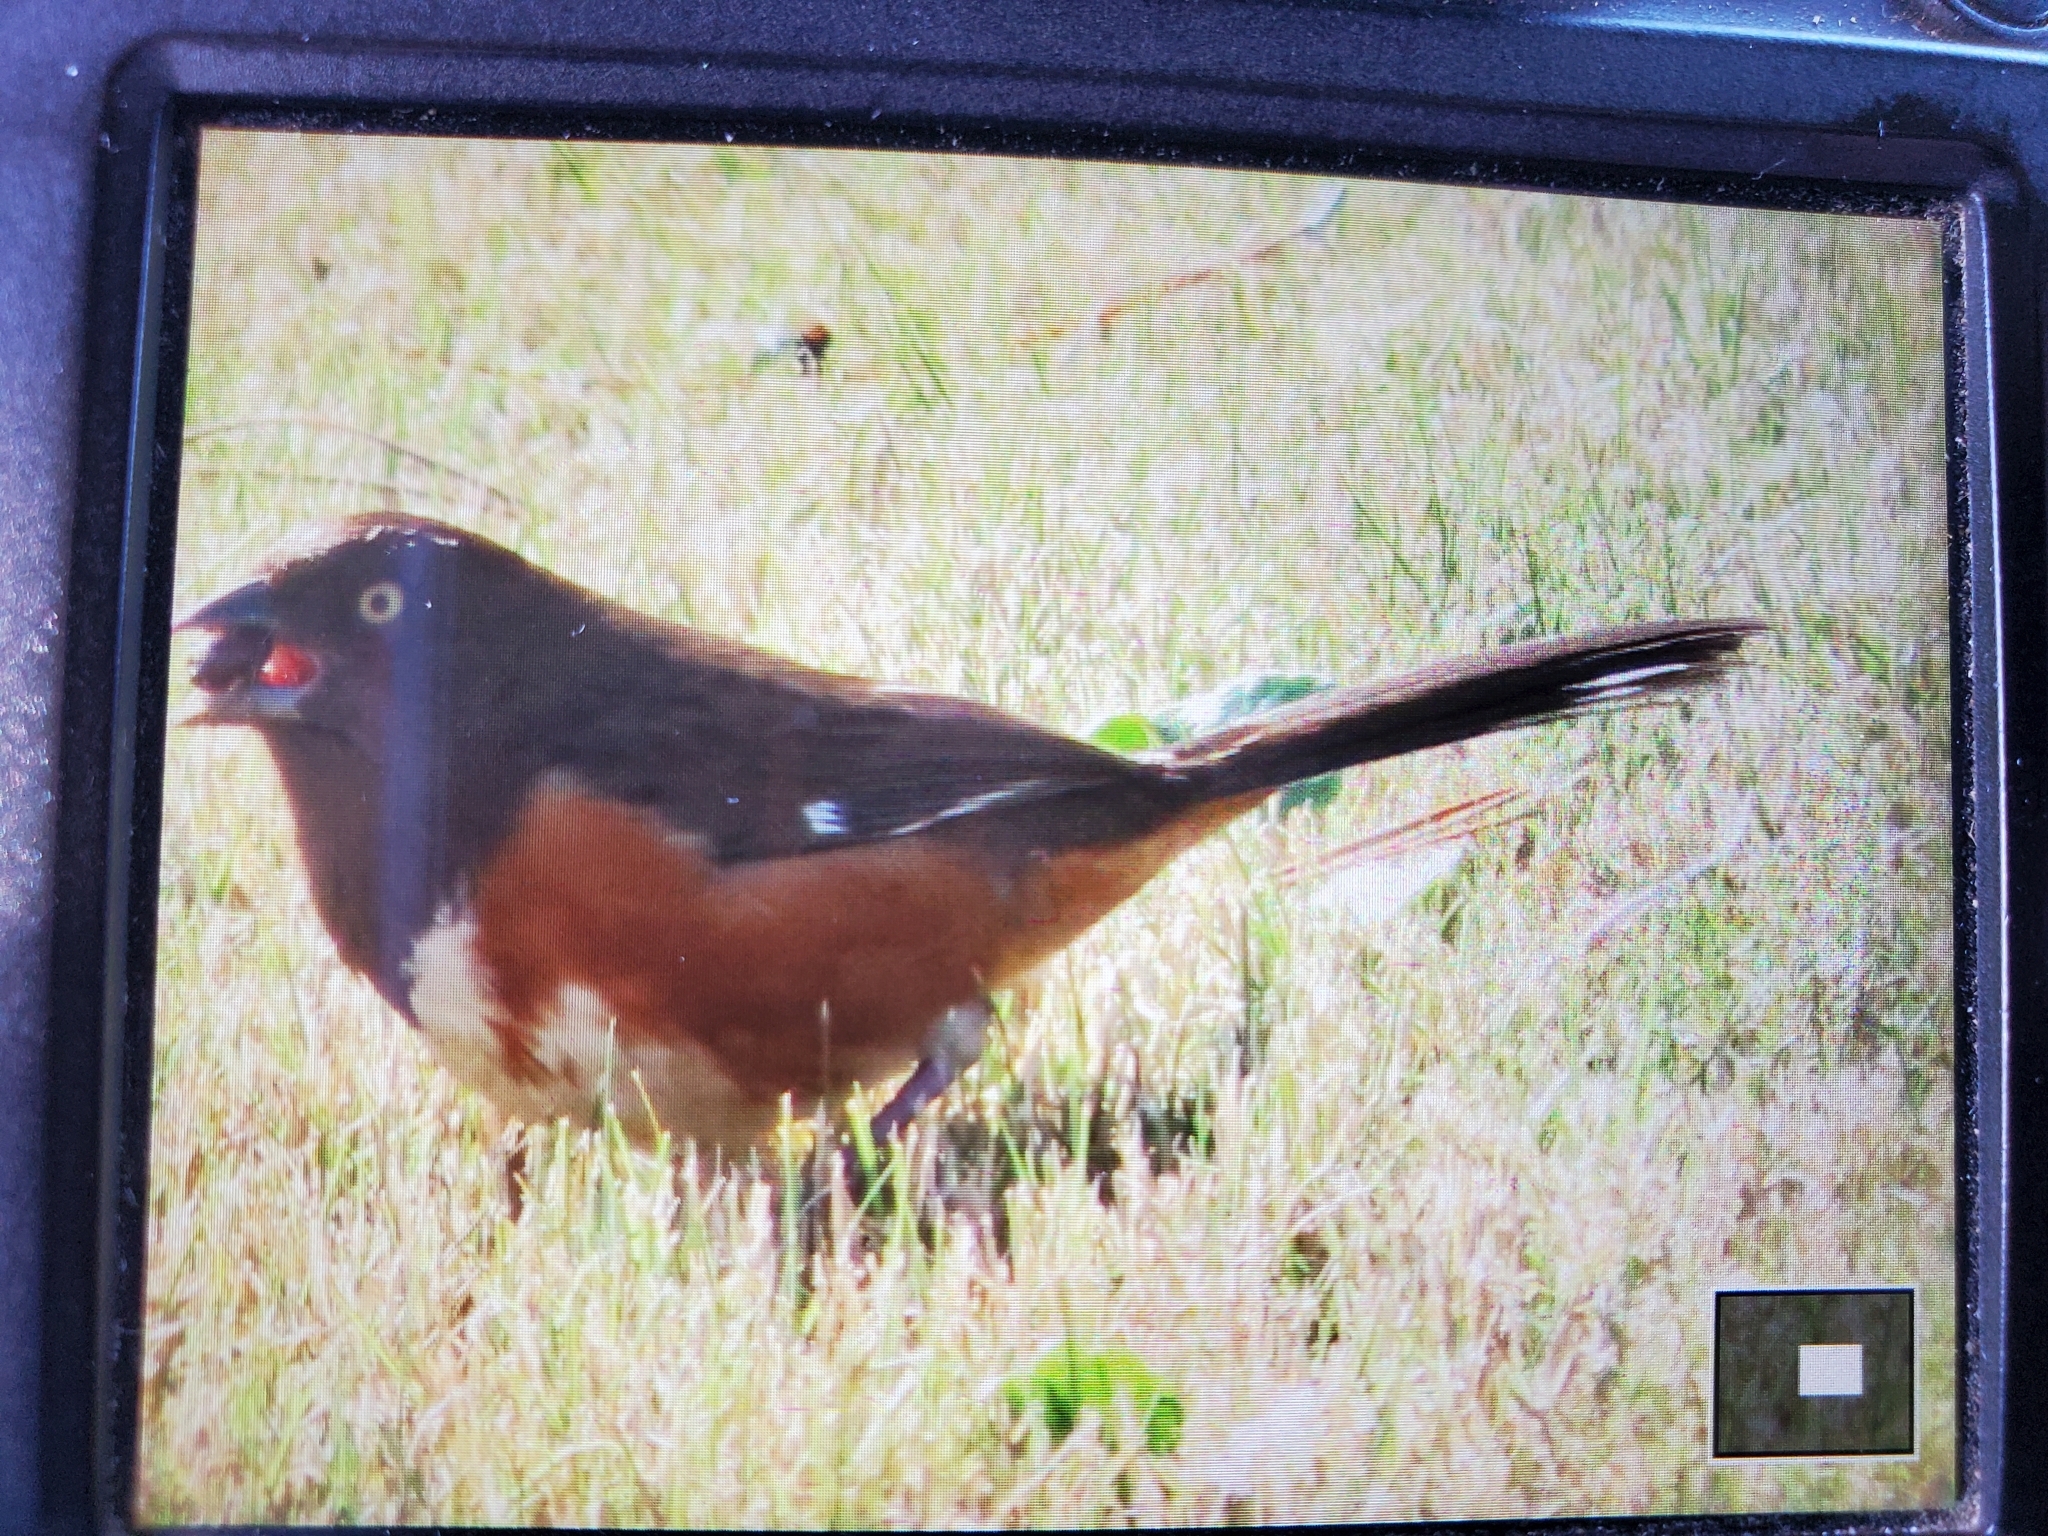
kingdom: Animalia
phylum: Chordata
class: Aves
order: Passeriformes
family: Passerellidae
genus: Pipilo
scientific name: Pipilo erythrophthalmus
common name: Eastern towhee
